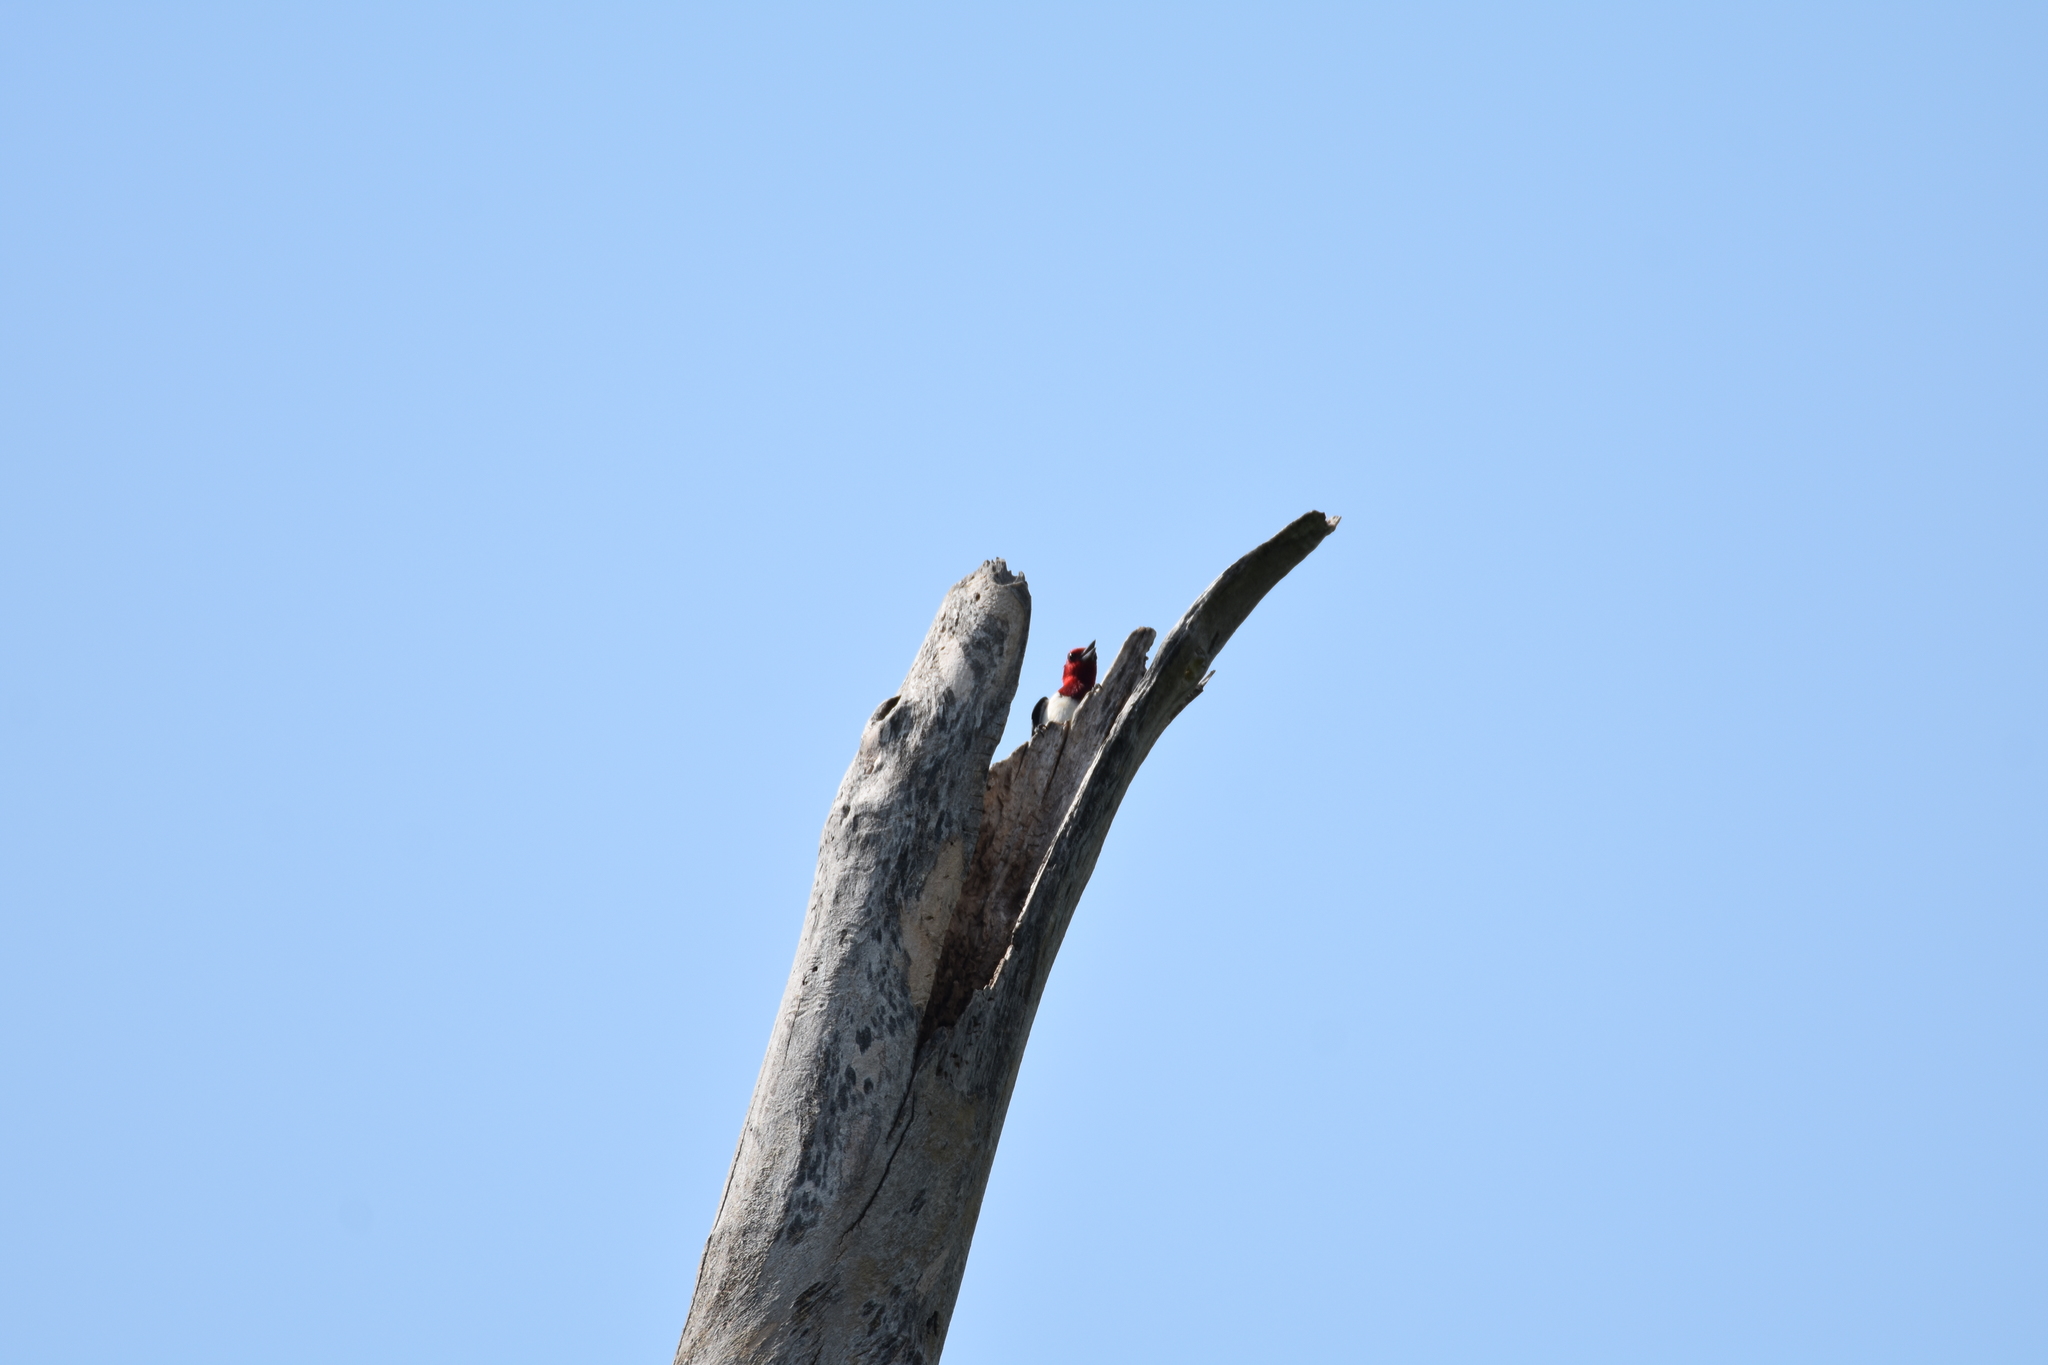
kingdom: Animalia
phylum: Chordata
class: Aves
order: Piciformes
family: Picidae
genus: Melanerpes
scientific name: Melanerpes erythrocephalus
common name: Red-headed woodpecker
